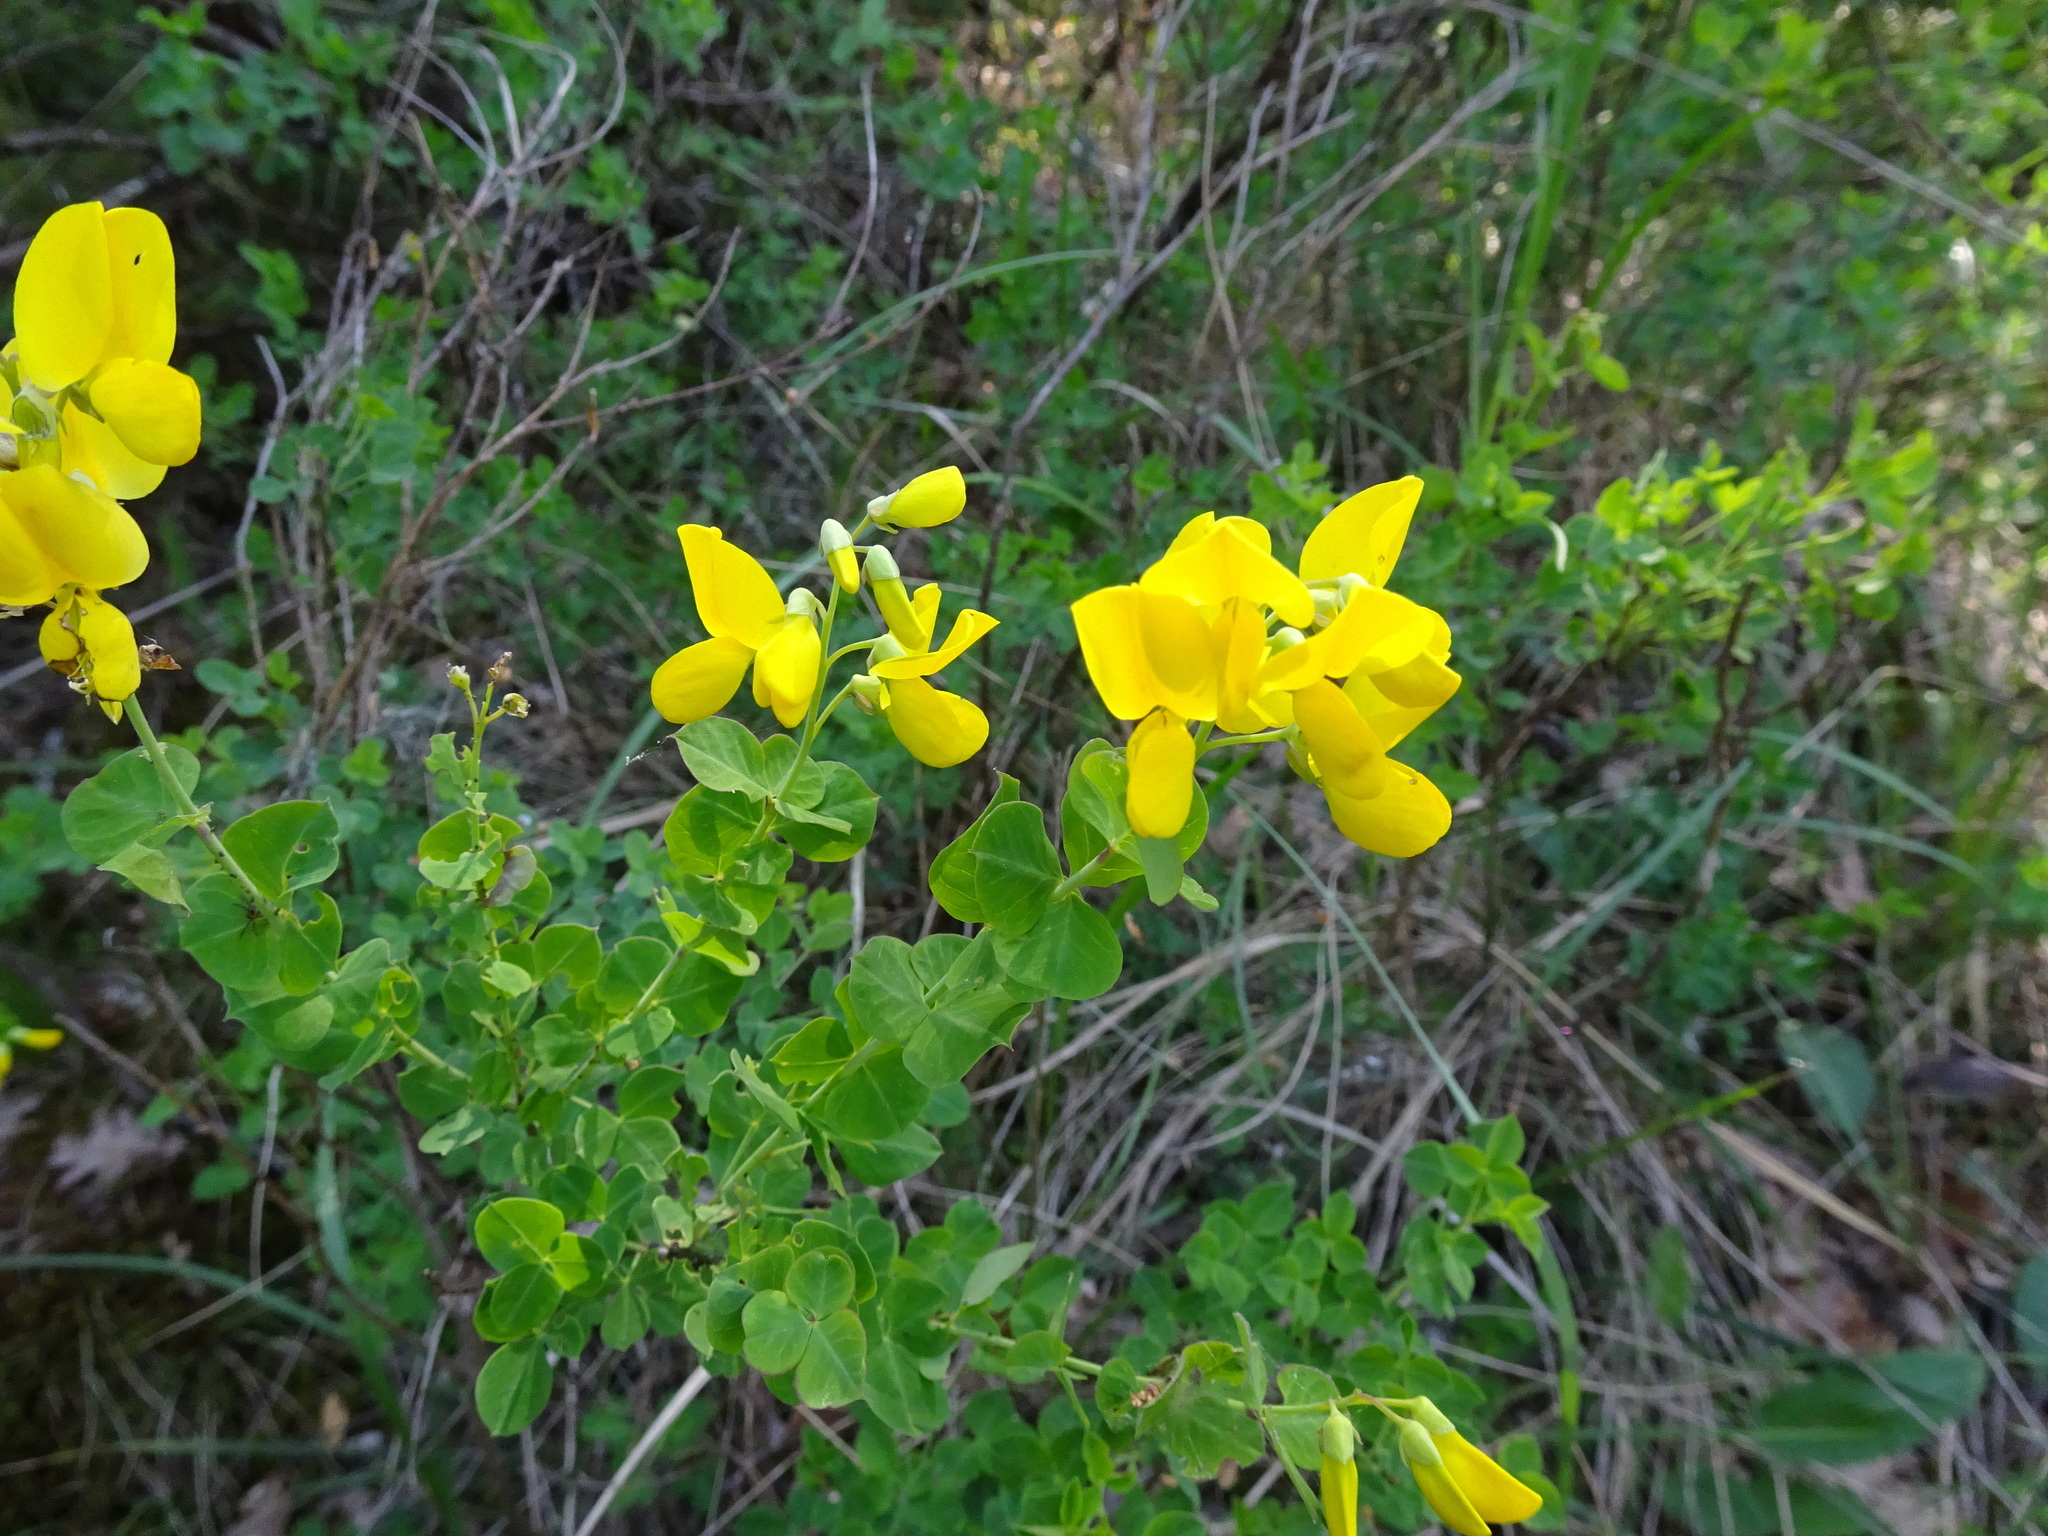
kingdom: Plantae
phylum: Tracheophyta
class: Magnoliopsida
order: Fabales
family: Fabaceae
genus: Cytisophyllum
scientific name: Cytisophyllum sessilifolium
